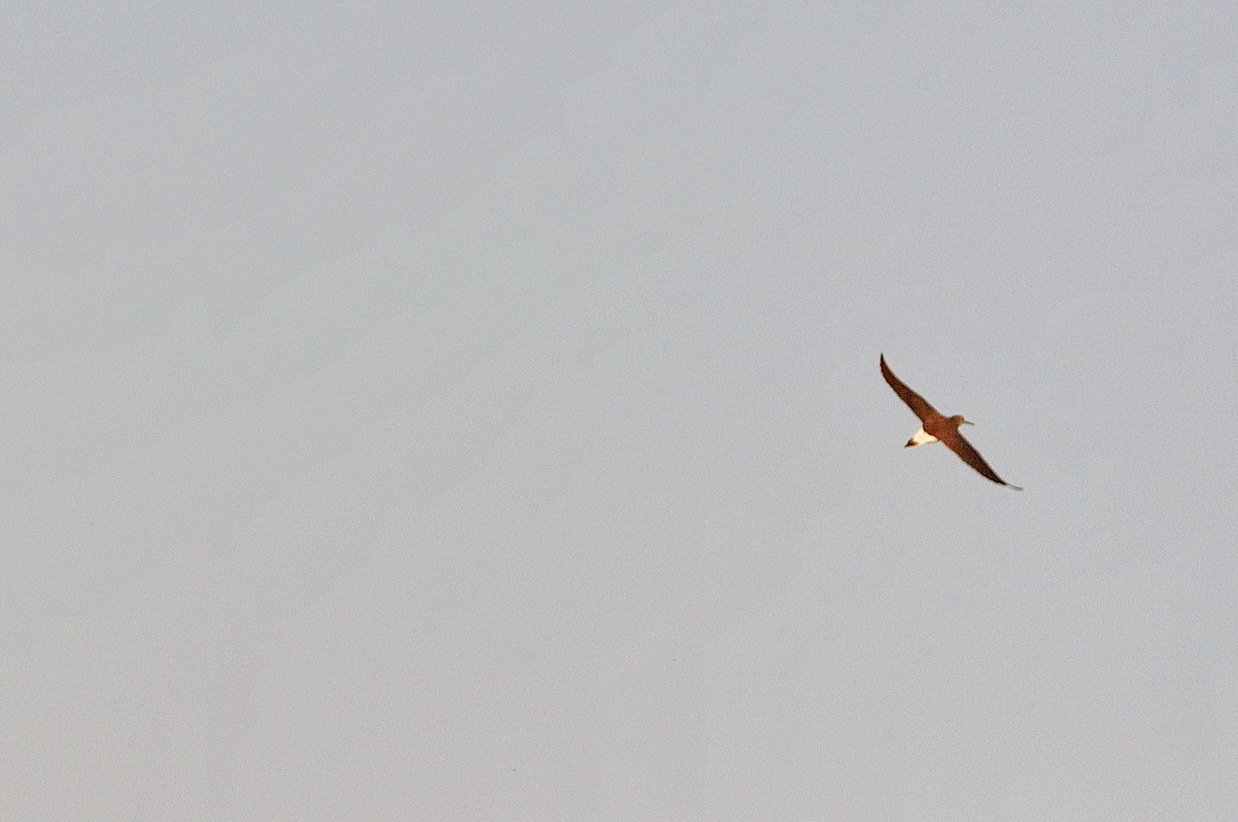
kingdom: Animalia
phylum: Chordata
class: Aves
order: Charadriiformes
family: Scolopacidae
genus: Tringa
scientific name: Tringa ochropus
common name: Green sandpiper
